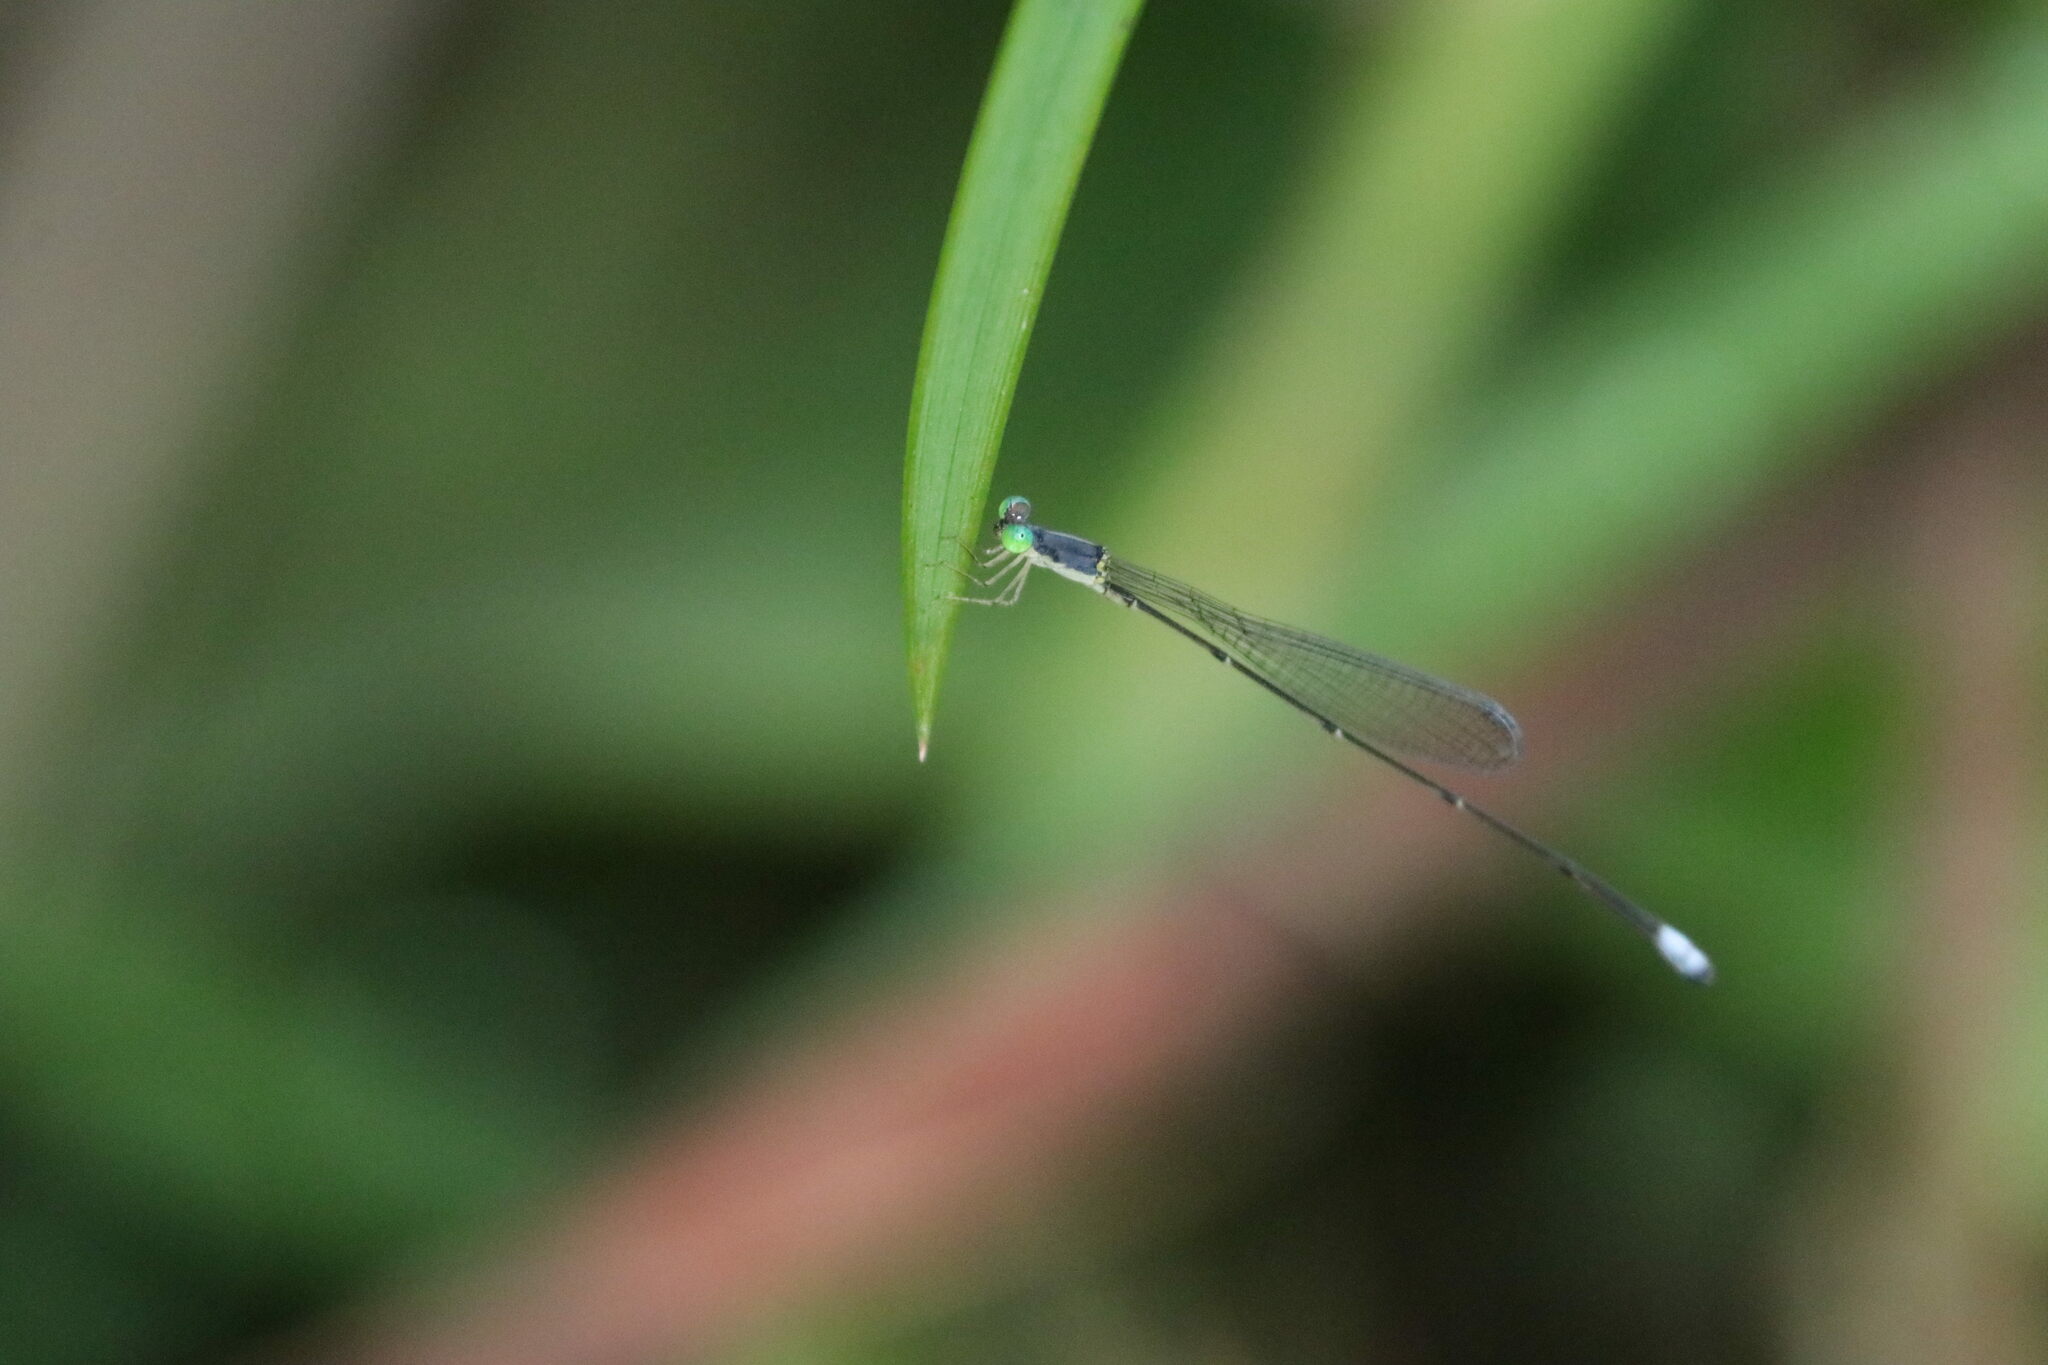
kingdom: Animalia
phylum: Arthropoda
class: Insecta
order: Odonata
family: Coenagrionidae
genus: Teinobasis
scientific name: Teinobasis samaritis
